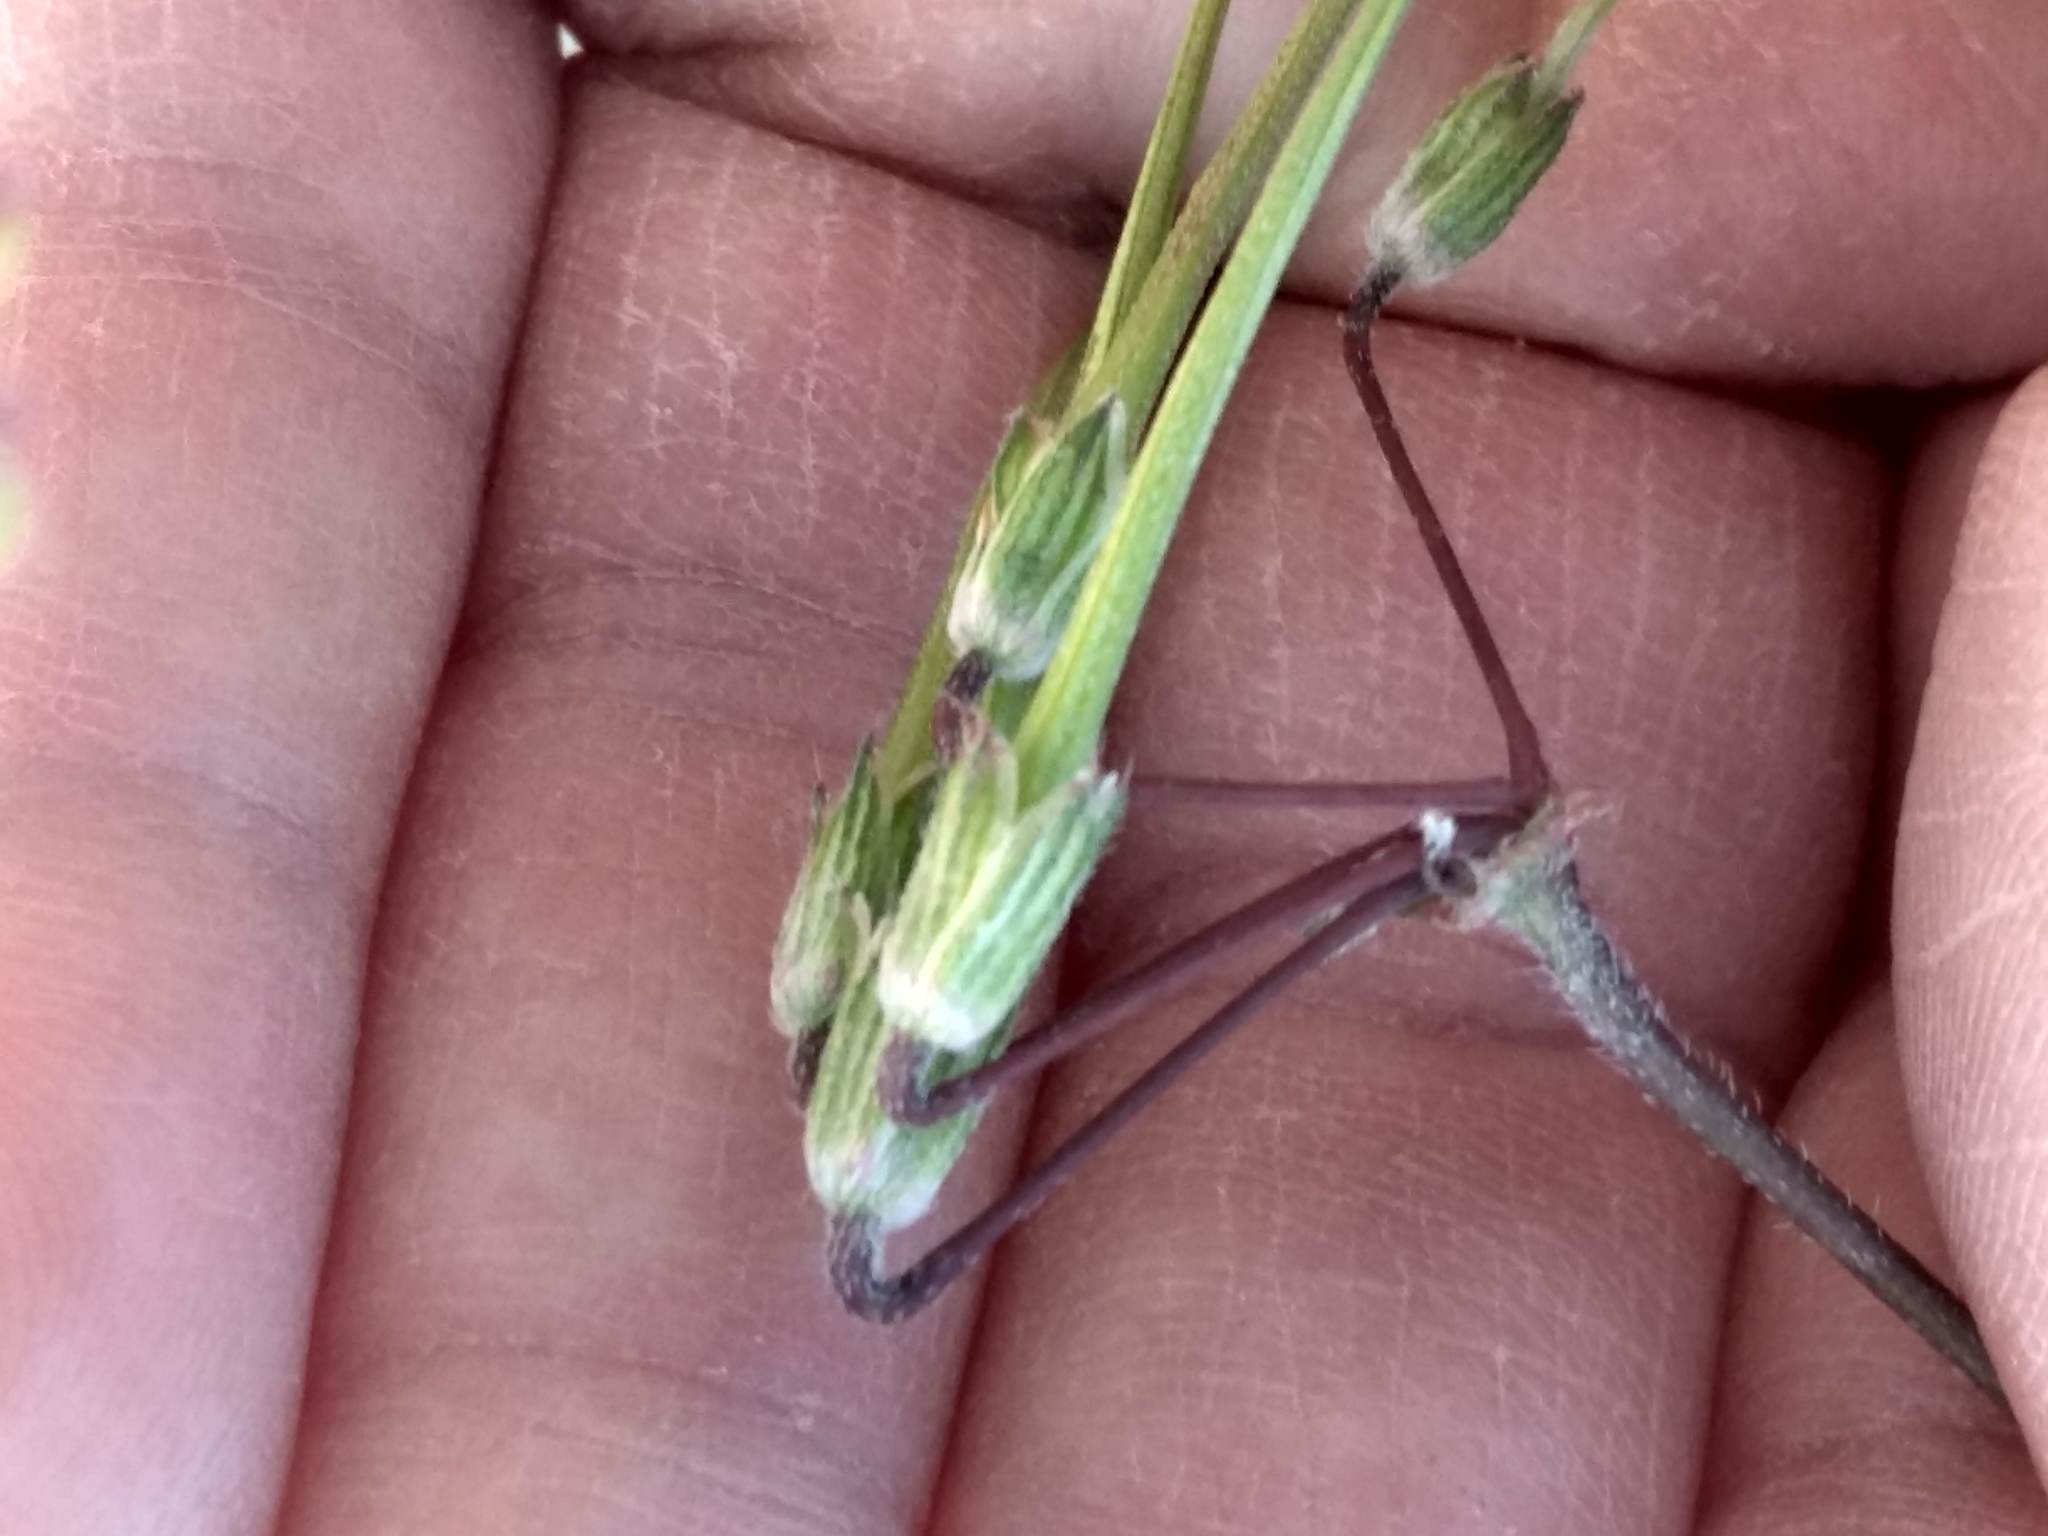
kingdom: Plantae
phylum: Tracheophyta
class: Magnoliopsida
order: Geraniales
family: Geraniaceae
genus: Erodium
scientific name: Erodium cicutarium
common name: Common stork's-bill
